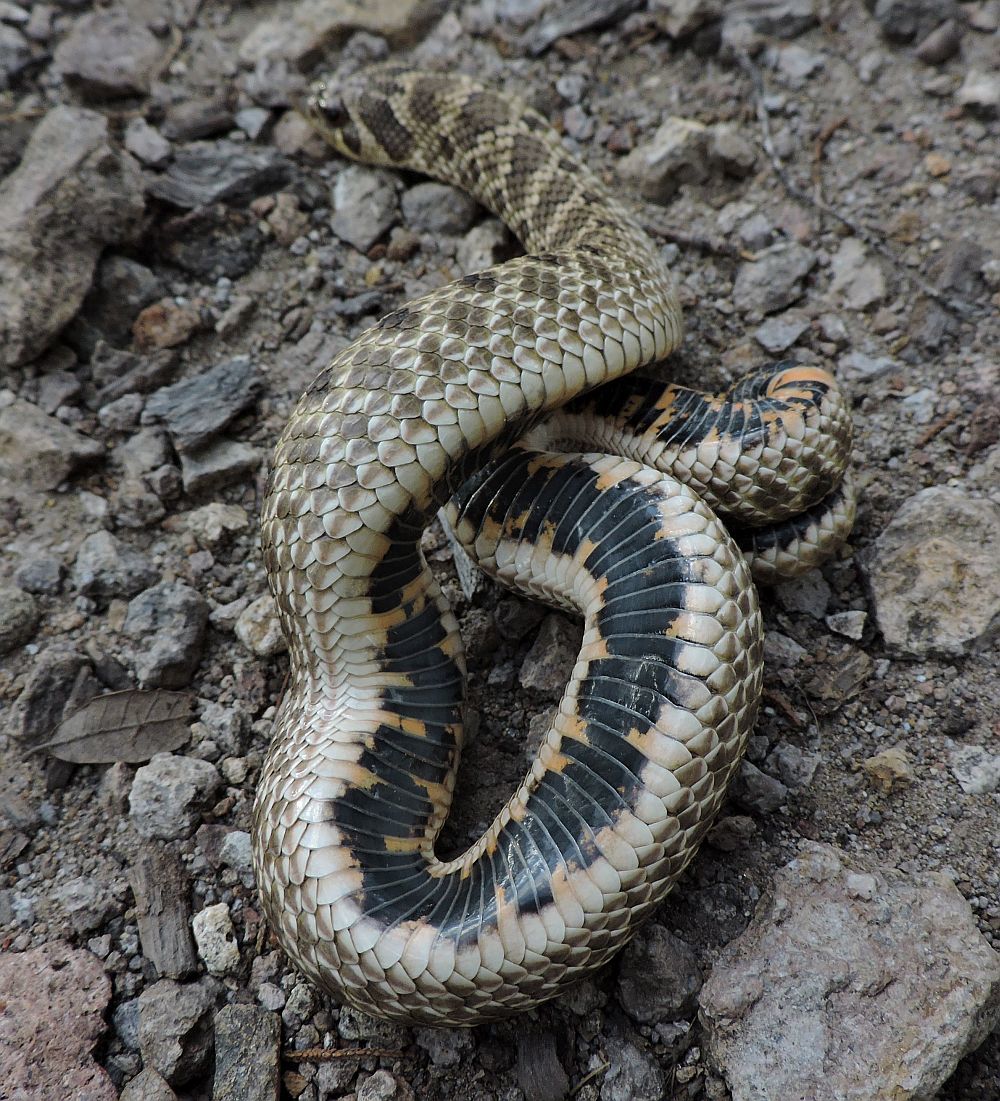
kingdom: Animalia
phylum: Chordata
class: Squamata
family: Colubridae
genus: Heterodon
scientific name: Heterodon kennerlyi
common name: Mexican hognose snake
